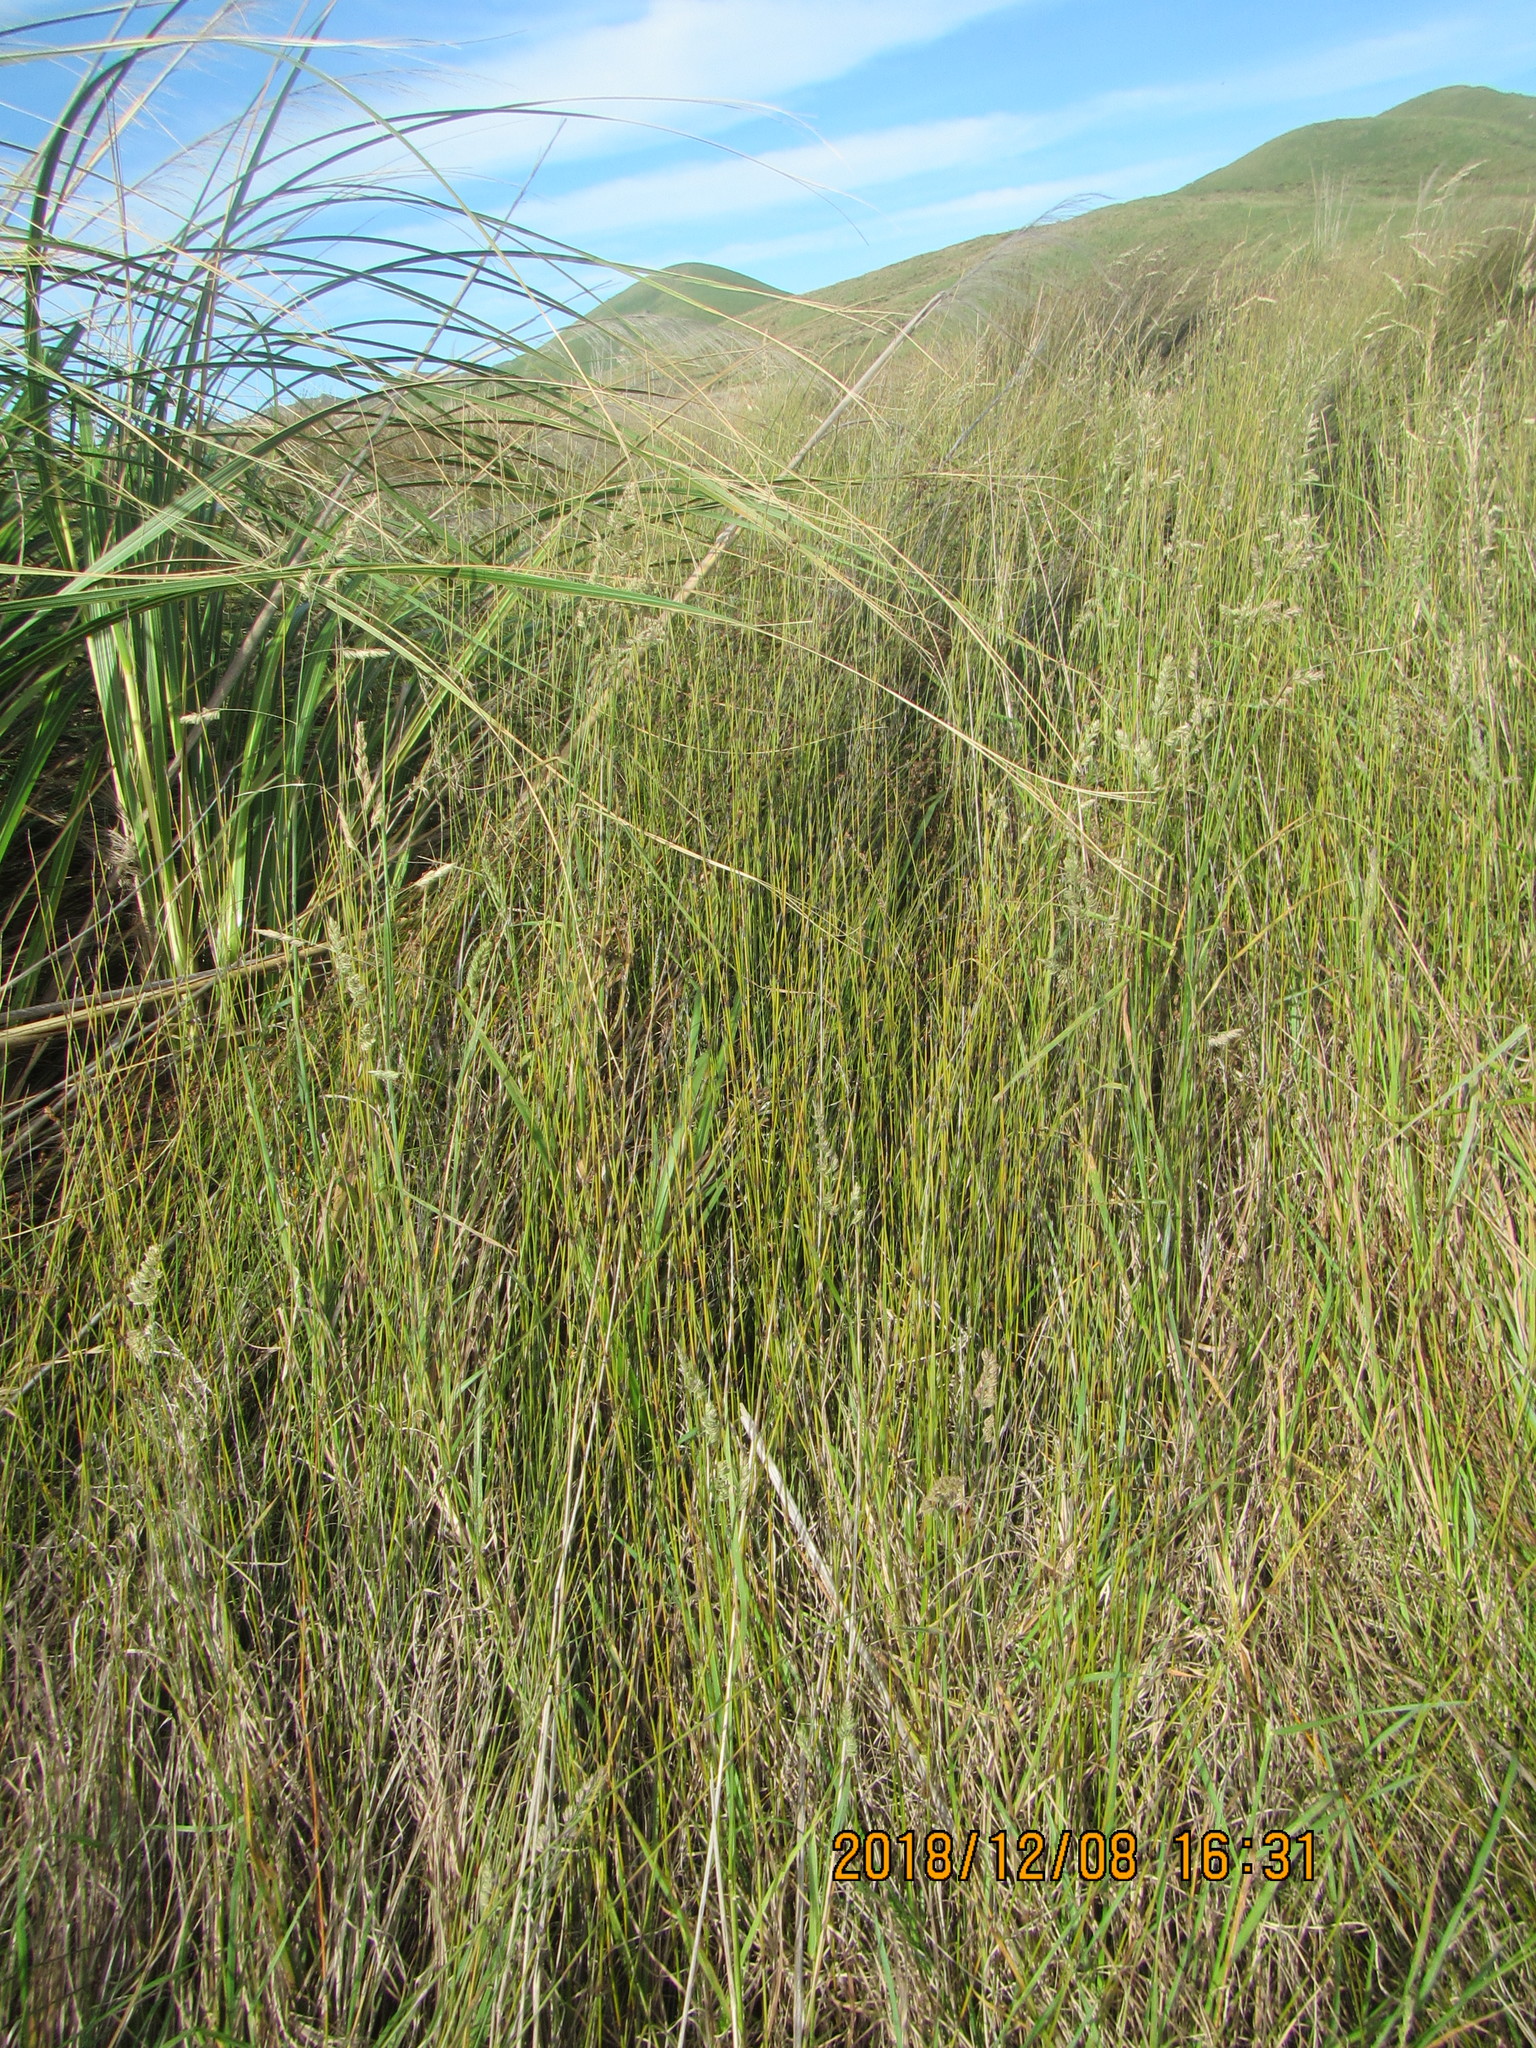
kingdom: Plantae
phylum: Tracheophyta
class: Liliopsida
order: Poales
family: Restionaceae
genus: Apodasmia
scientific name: Apodasmia similis
